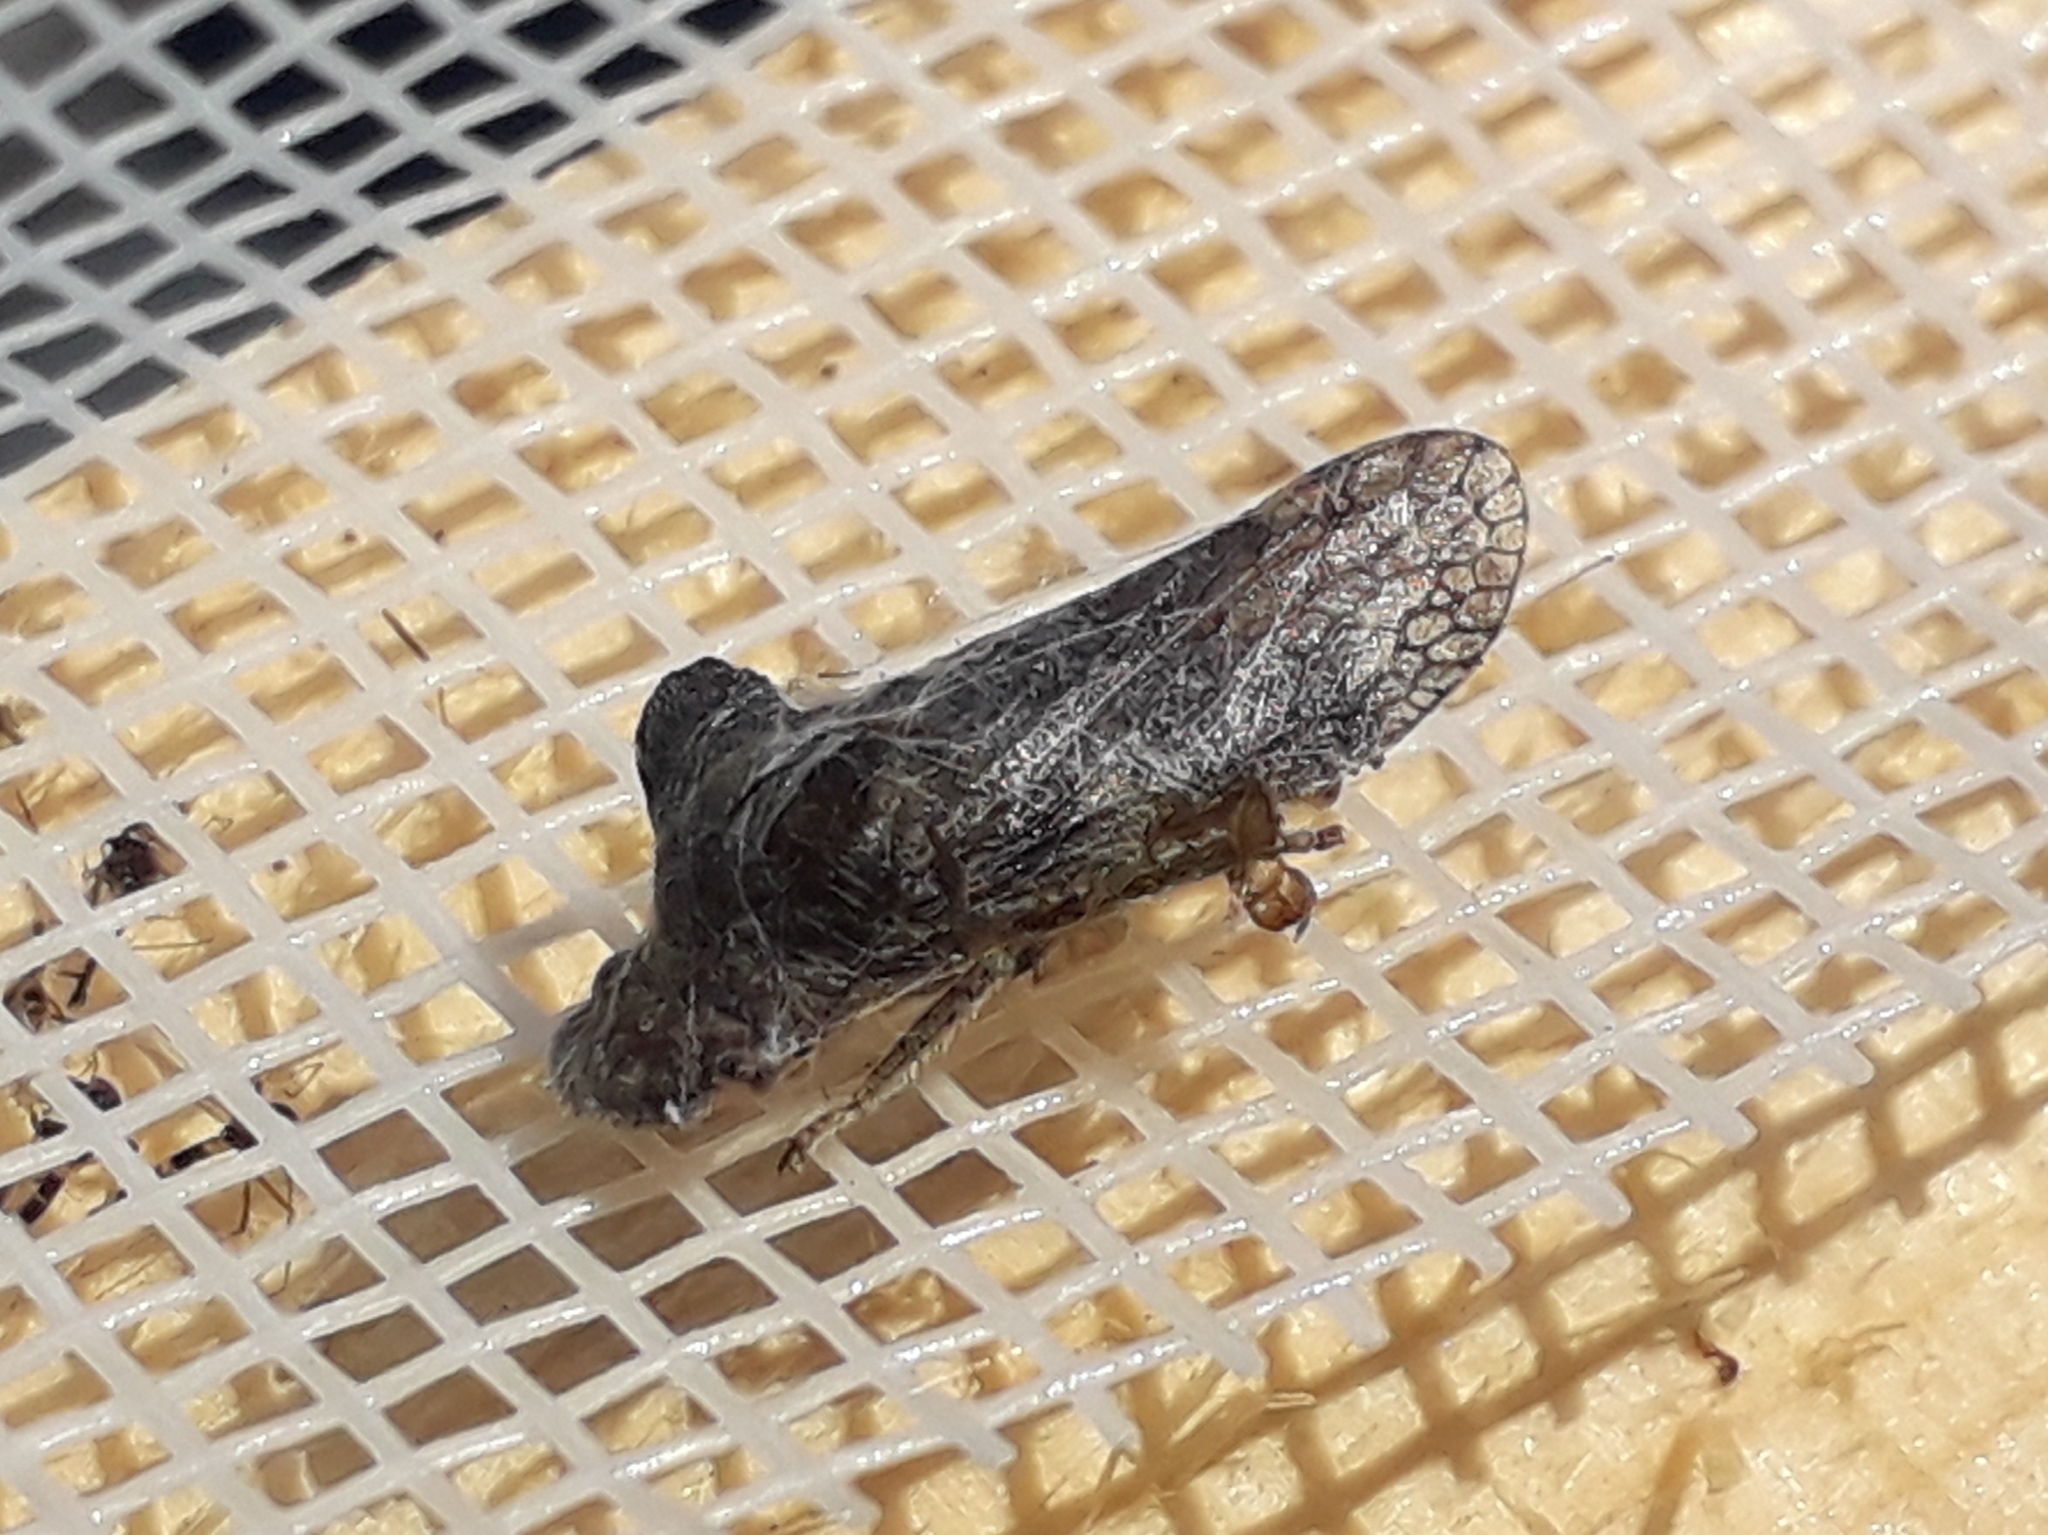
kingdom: Animalia
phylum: Arthropoda
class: Insecta
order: Hemiptera
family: Cicadellidae
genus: Ledra
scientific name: Ledra aurita
